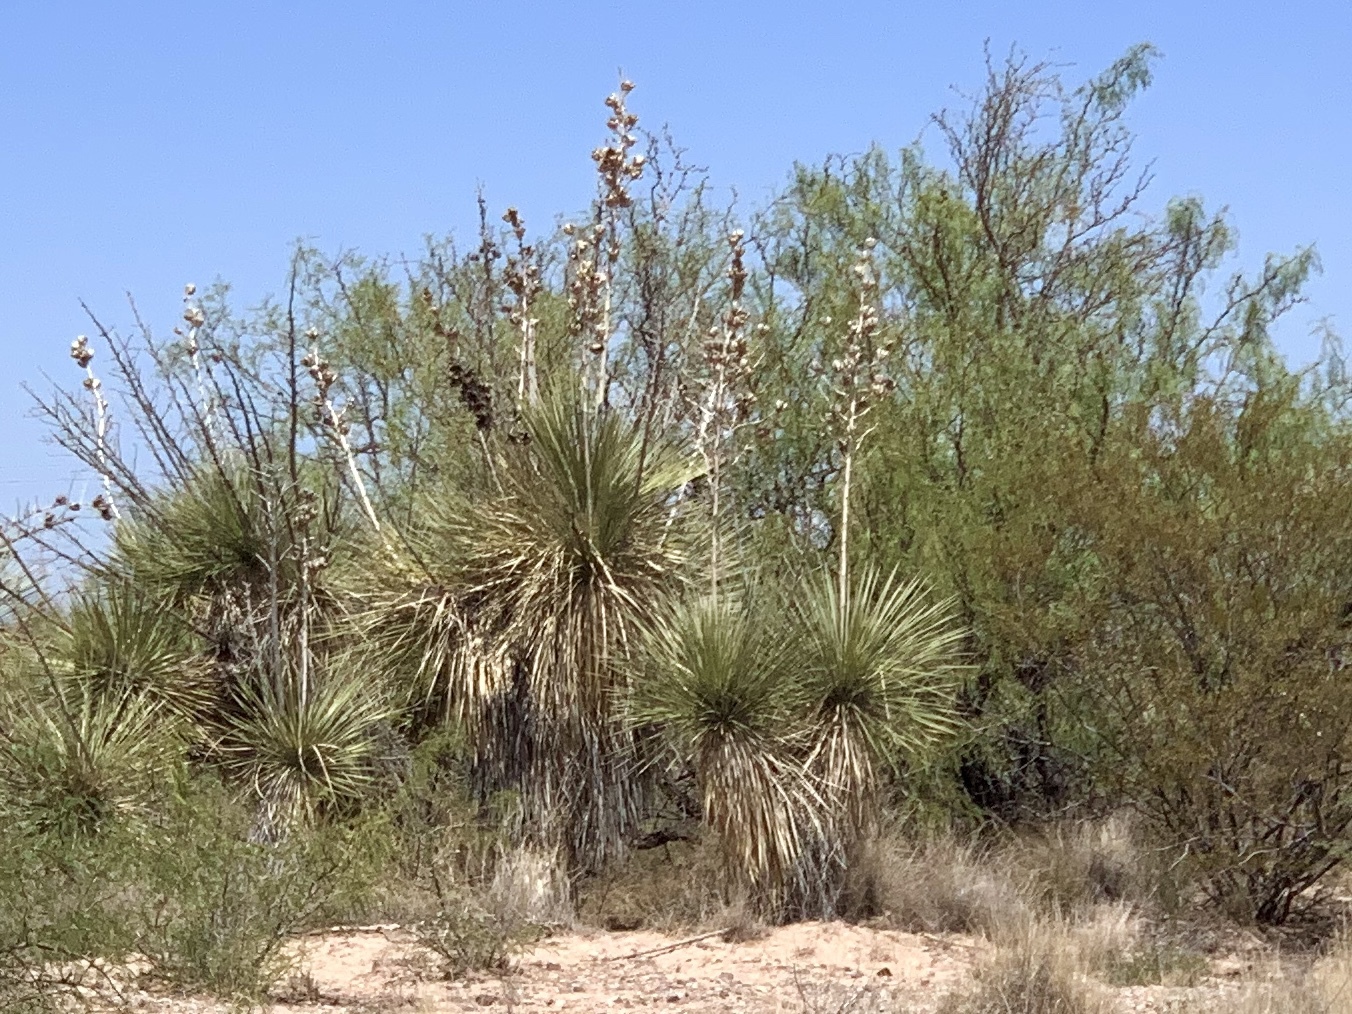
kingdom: Plantae
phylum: Tracheophyta
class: Liliopsida
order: Asparagales
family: Asparagaceae
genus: Yucca
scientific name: Yucca elata
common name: Palmella
